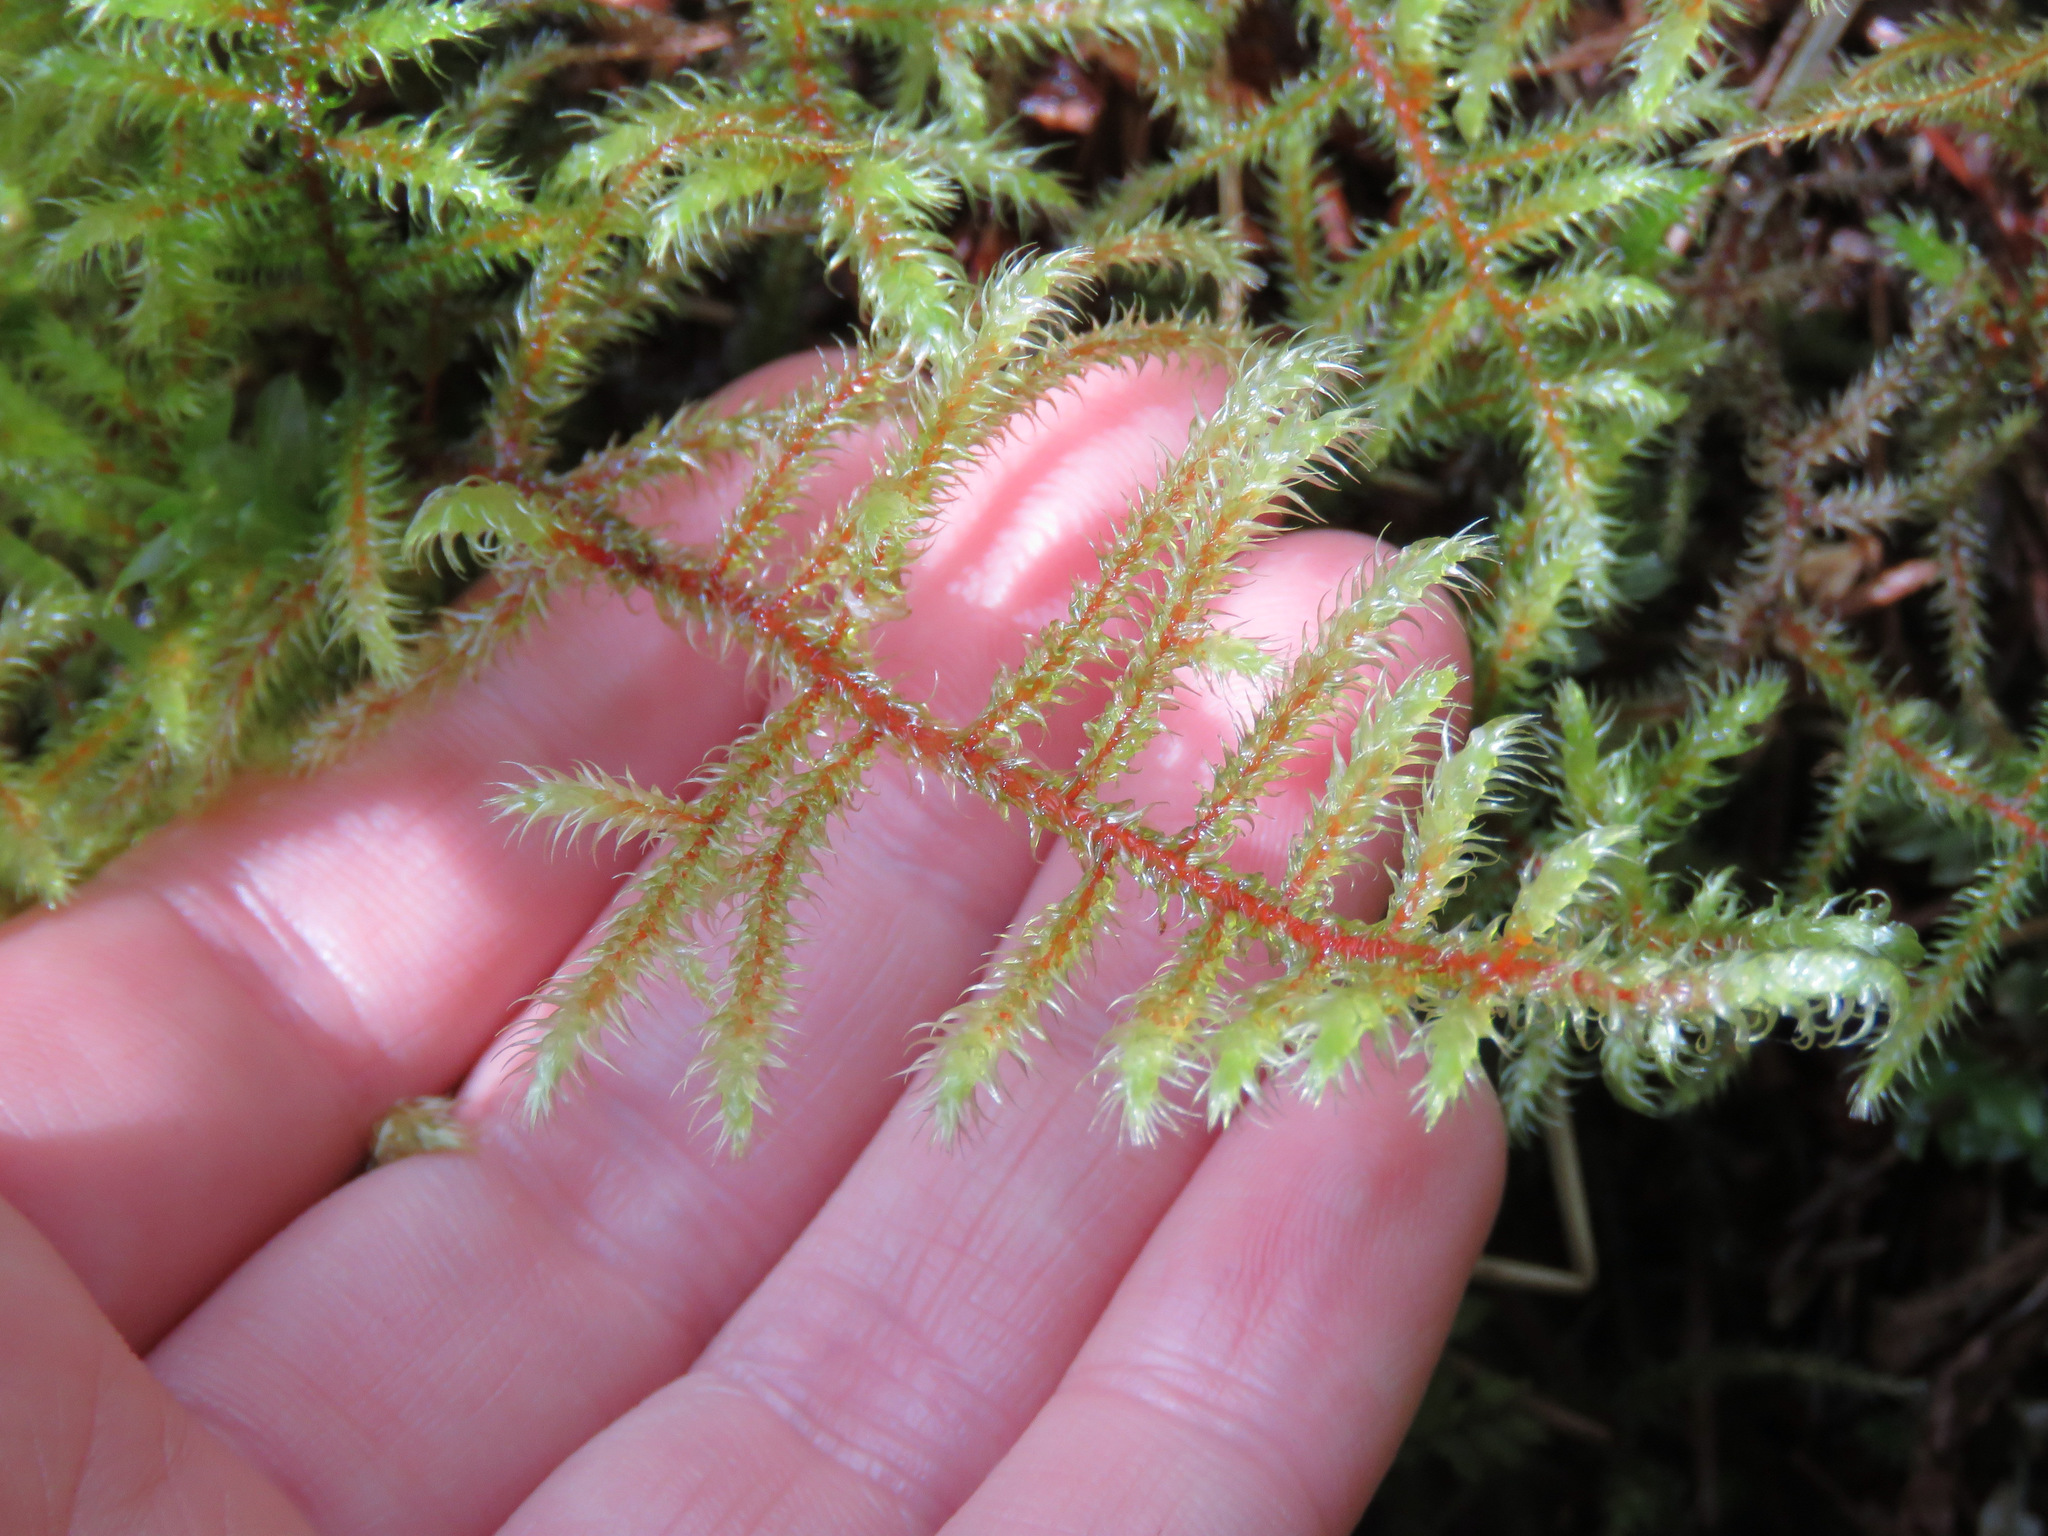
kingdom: Plantae
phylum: Bryophyta
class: Bryopsida
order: Hypnales
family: Hylocomiaceae
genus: Rhytidiadelphus
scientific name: Rhytidiadelphus loreus
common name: Lanky moss
